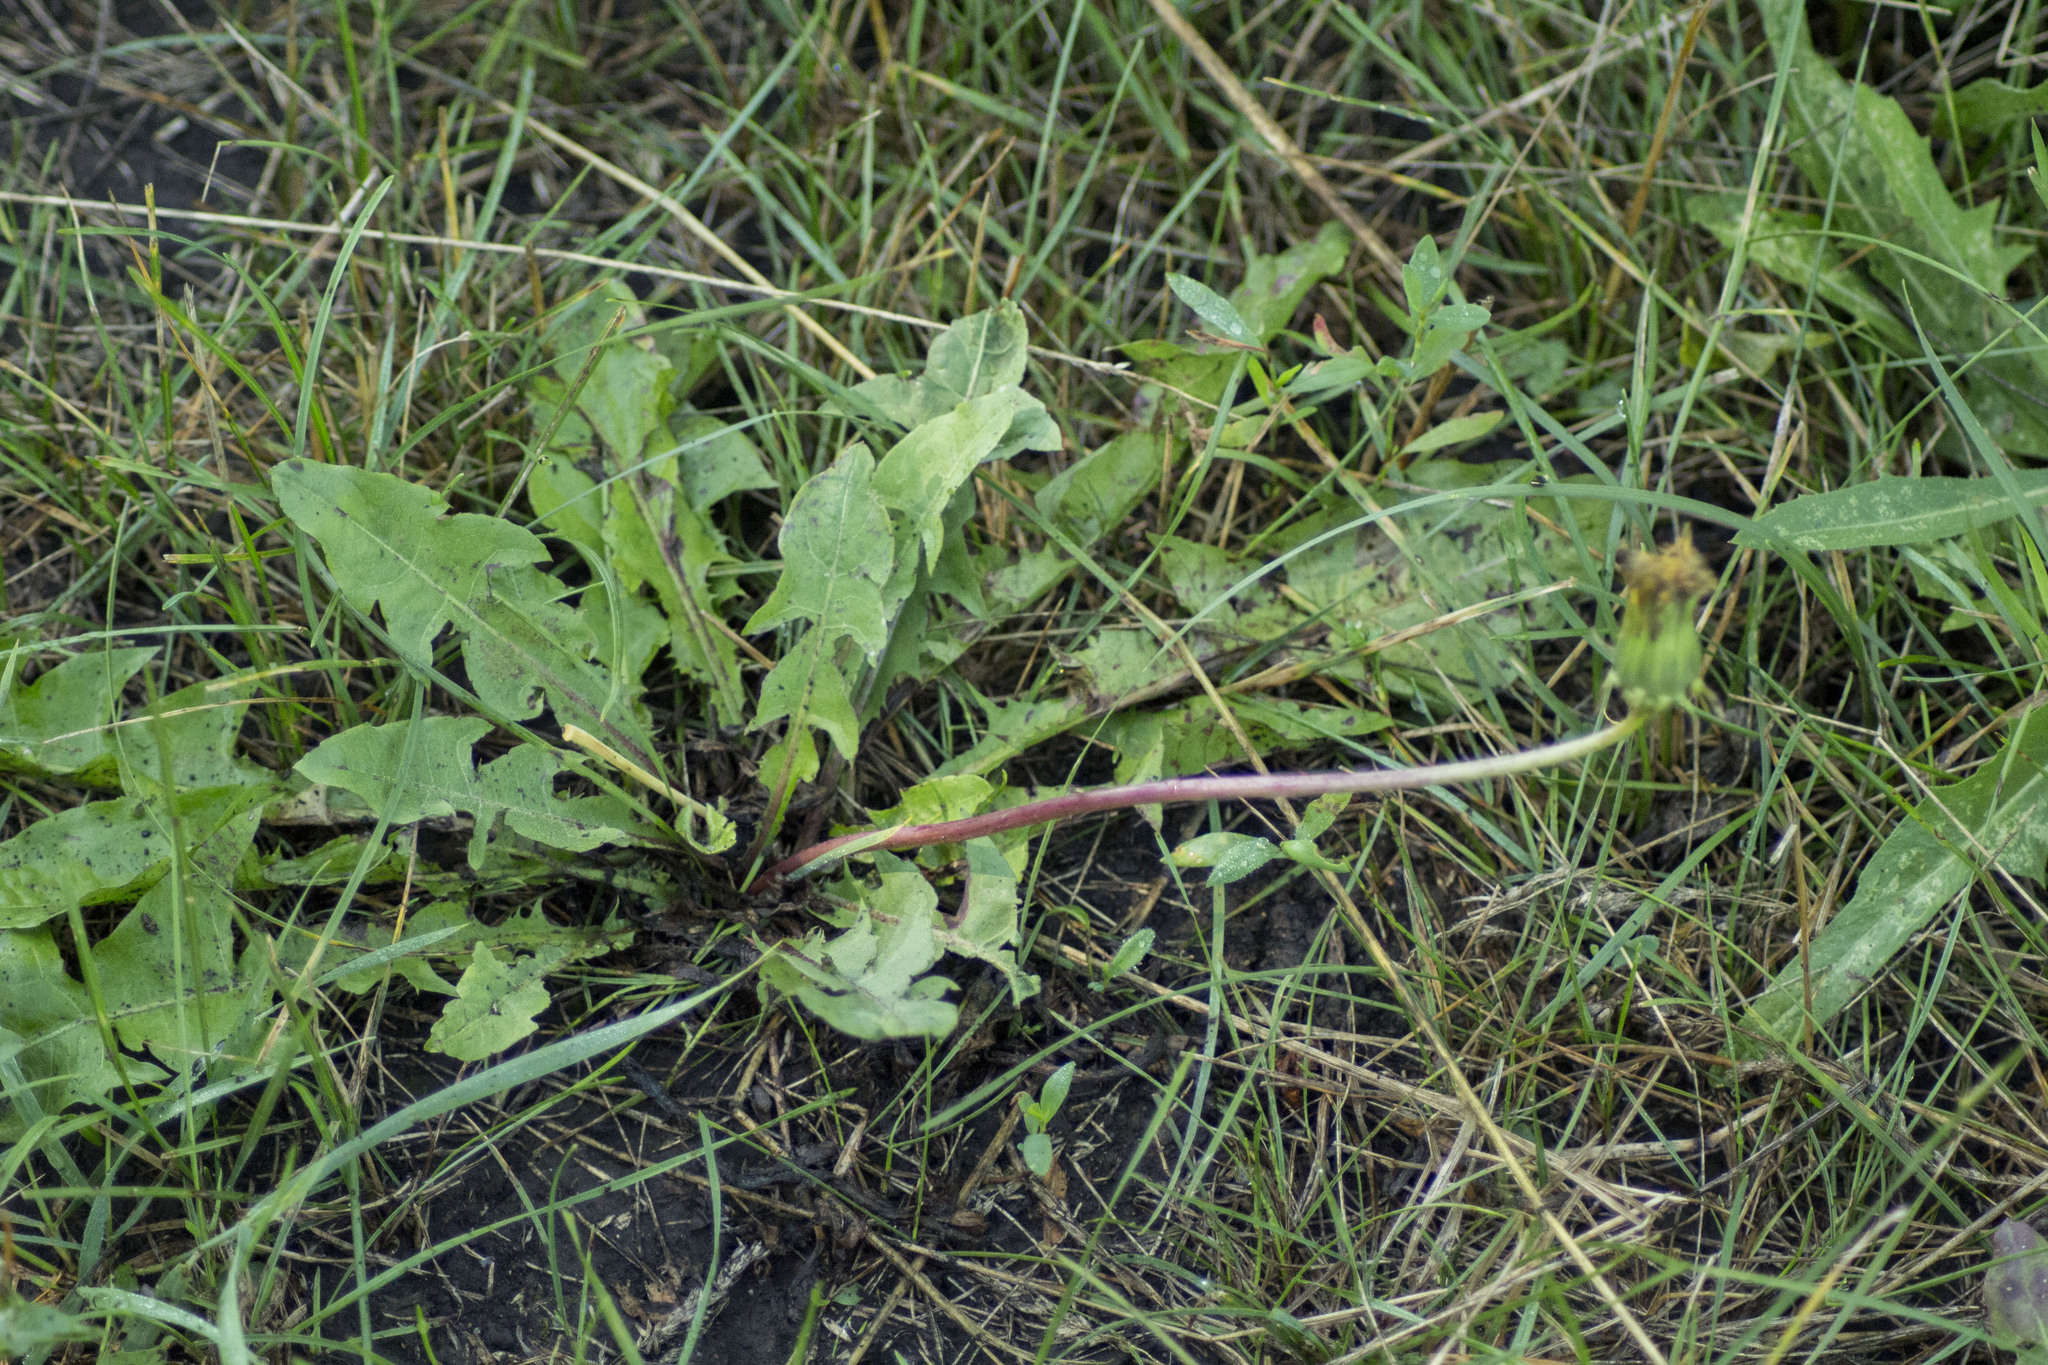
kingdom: Plantae
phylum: Tracheophyta
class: Magnoliopsida
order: Asterales
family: Asteraceae
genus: Taraxacum
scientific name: Taraxacum officinale
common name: Common dandelion
